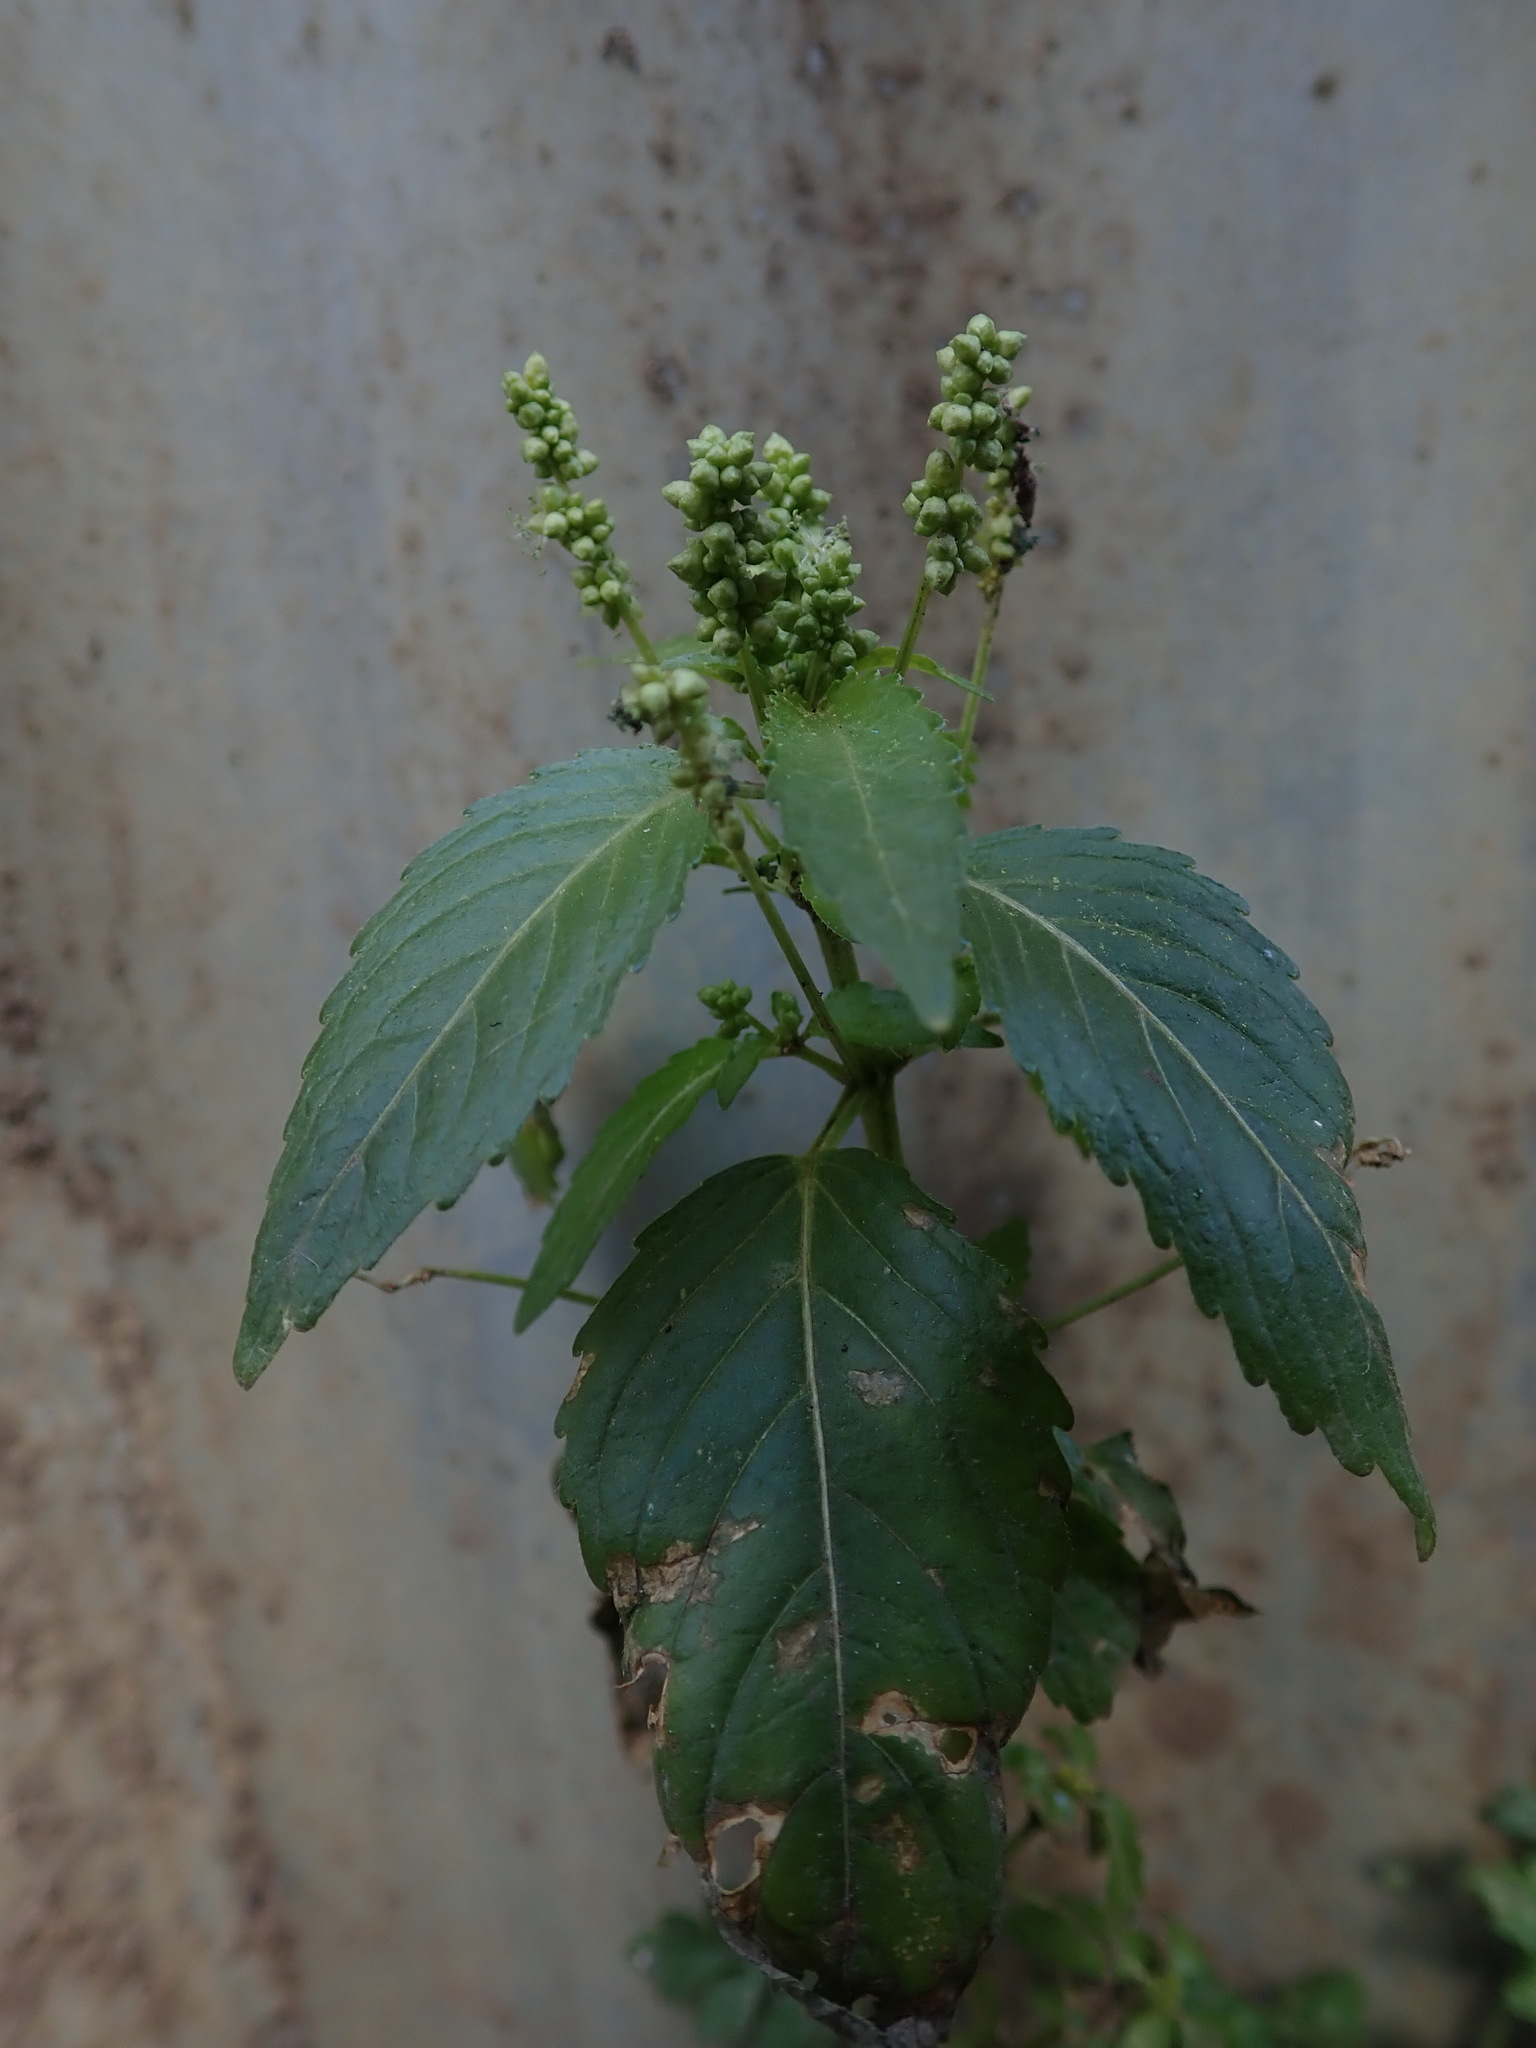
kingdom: Plantae
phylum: Tracheophyta
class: Magnoliopsida
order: Malpighiales
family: Euphorbiaceae
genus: Mercurialis
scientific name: Mercurialis annua
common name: Annual mercury
